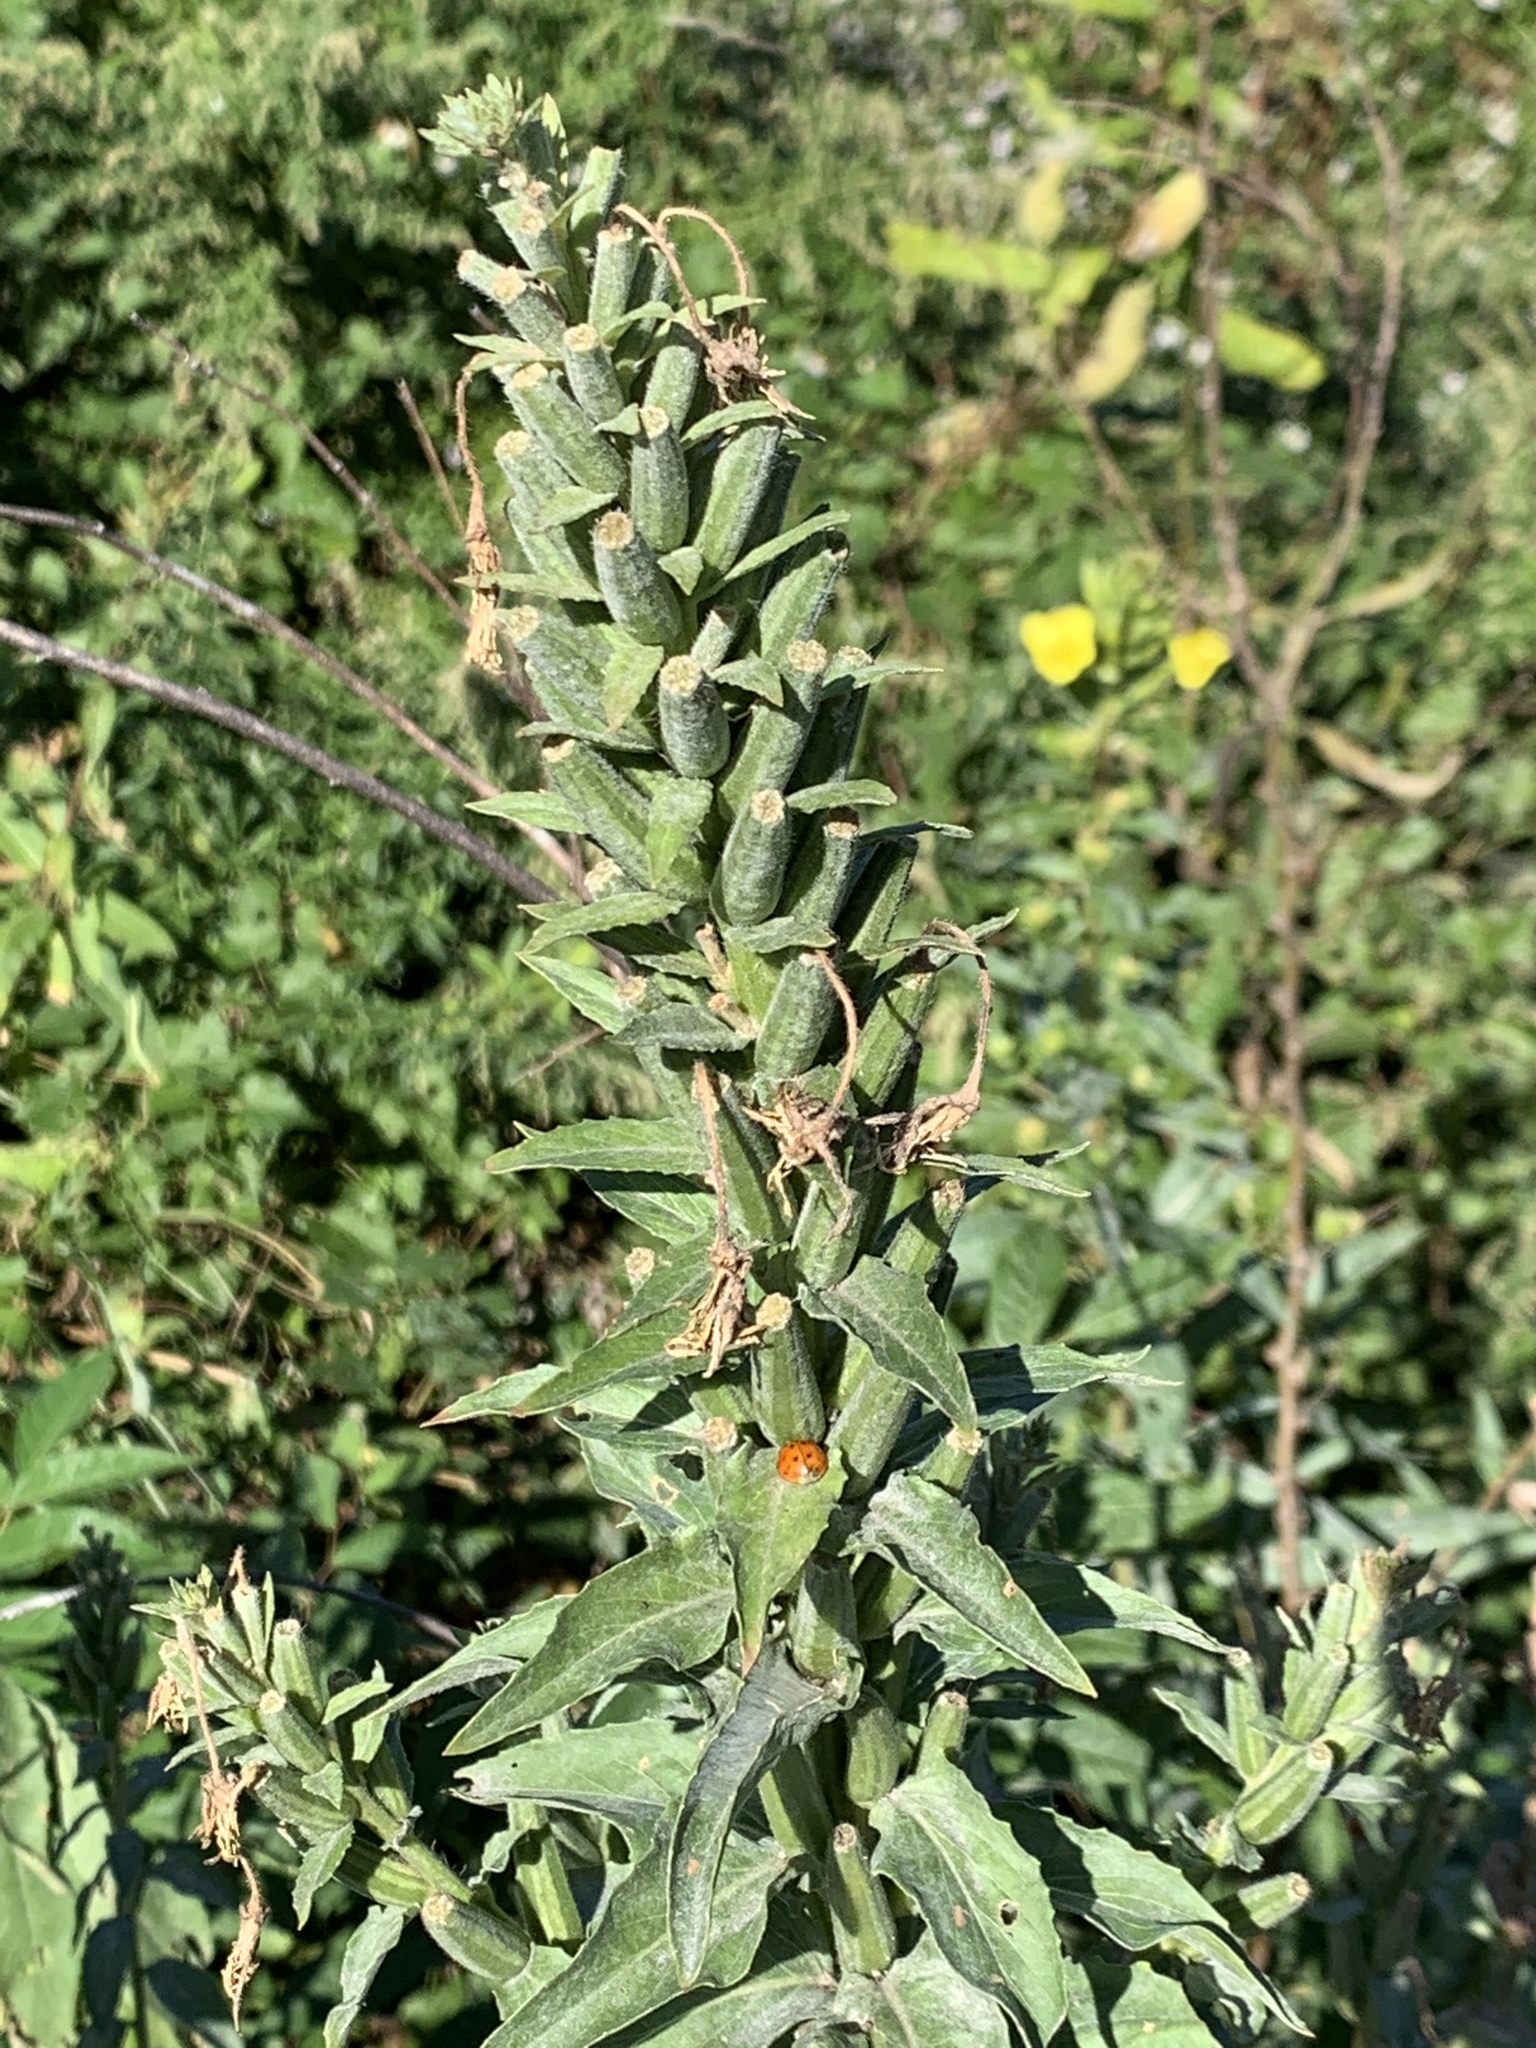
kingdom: Plantae
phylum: Tracheophyta
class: Magnoliopsida
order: Myrtales
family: Onagraceae
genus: Oenothera
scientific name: Oenothera biennis
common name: Common evening-primrose
